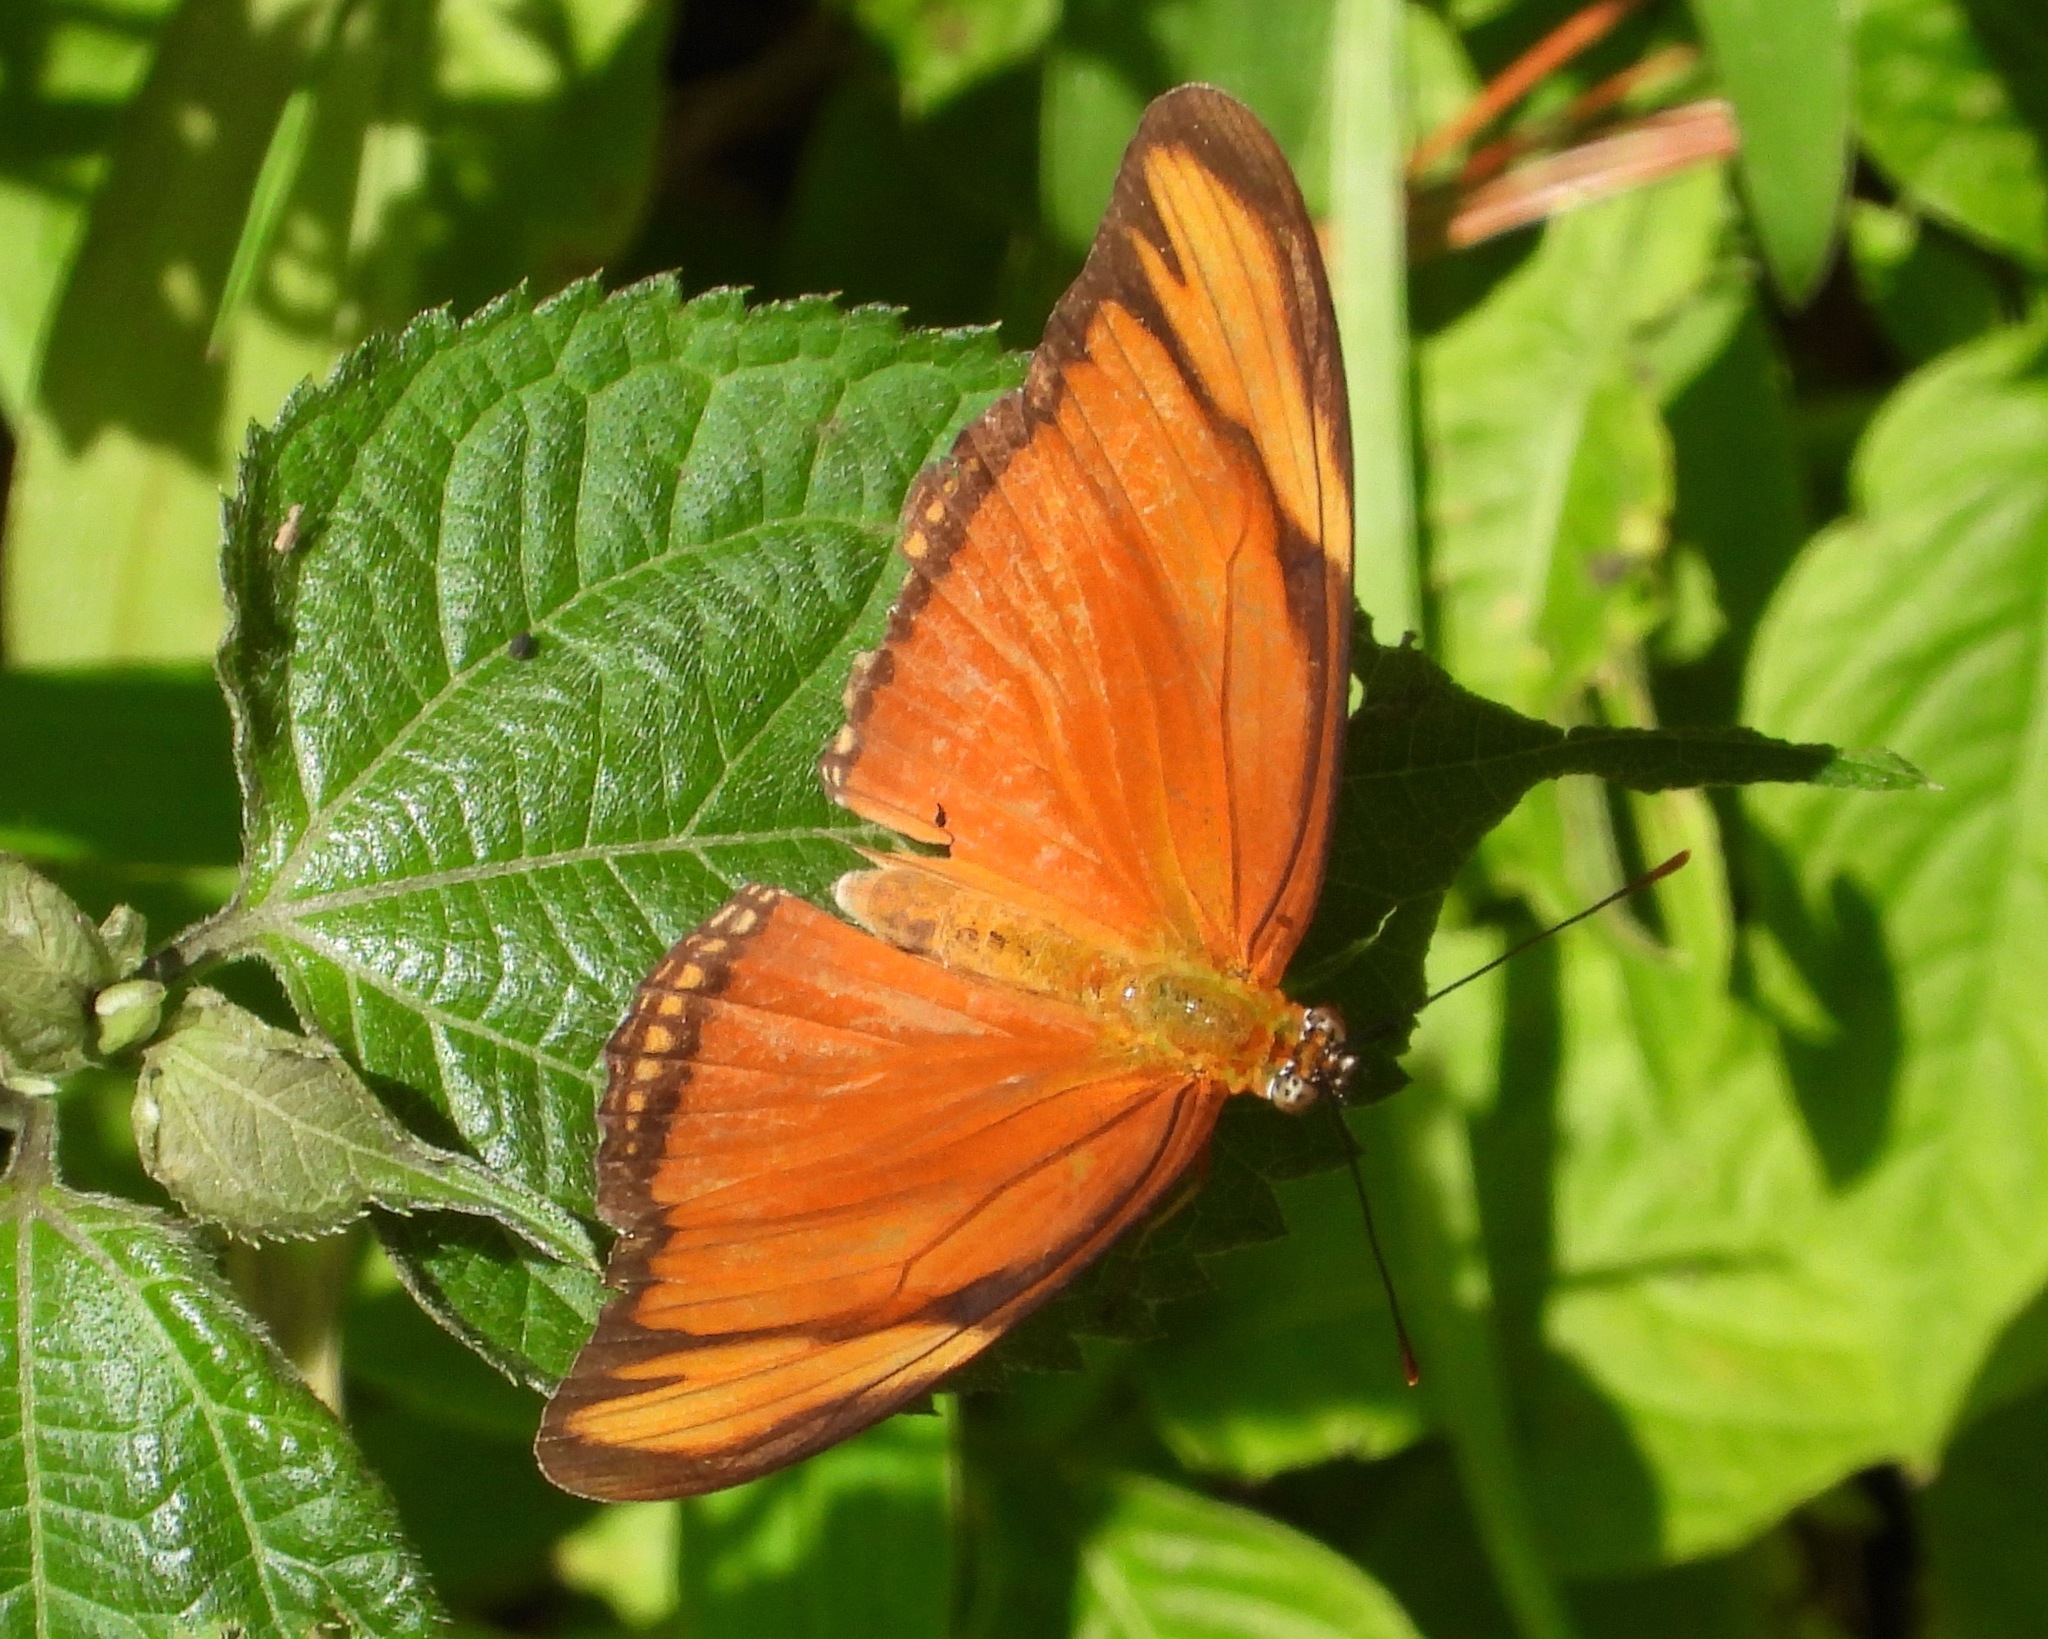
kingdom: Animalia
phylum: Arthropoda
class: Insecta
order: Lepidoptera
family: Nymphalidae
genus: Dryas
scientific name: Dryas iulia
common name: Flambeau
